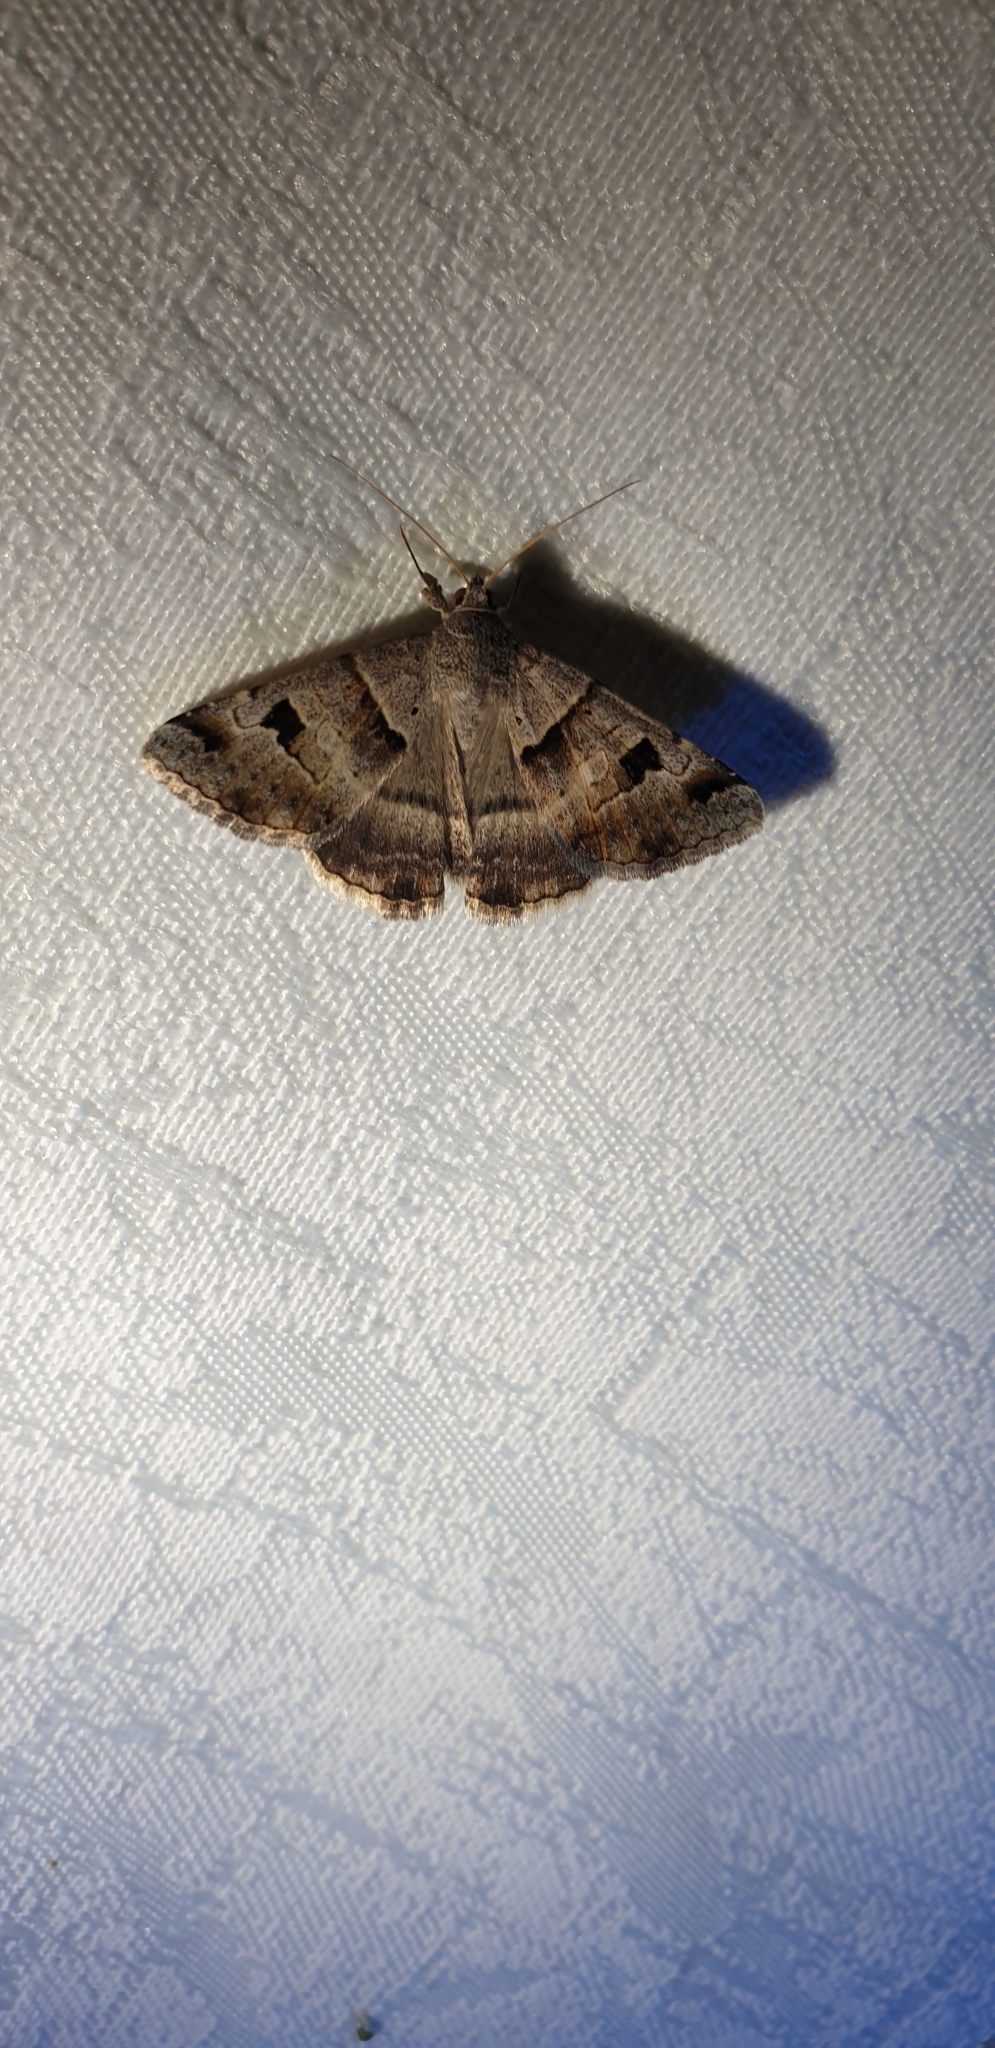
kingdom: Animalia
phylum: Arthropoda
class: Insecta
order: Lepidoptera
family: Erebidae
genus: Mocis
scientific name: Mocis alterna
